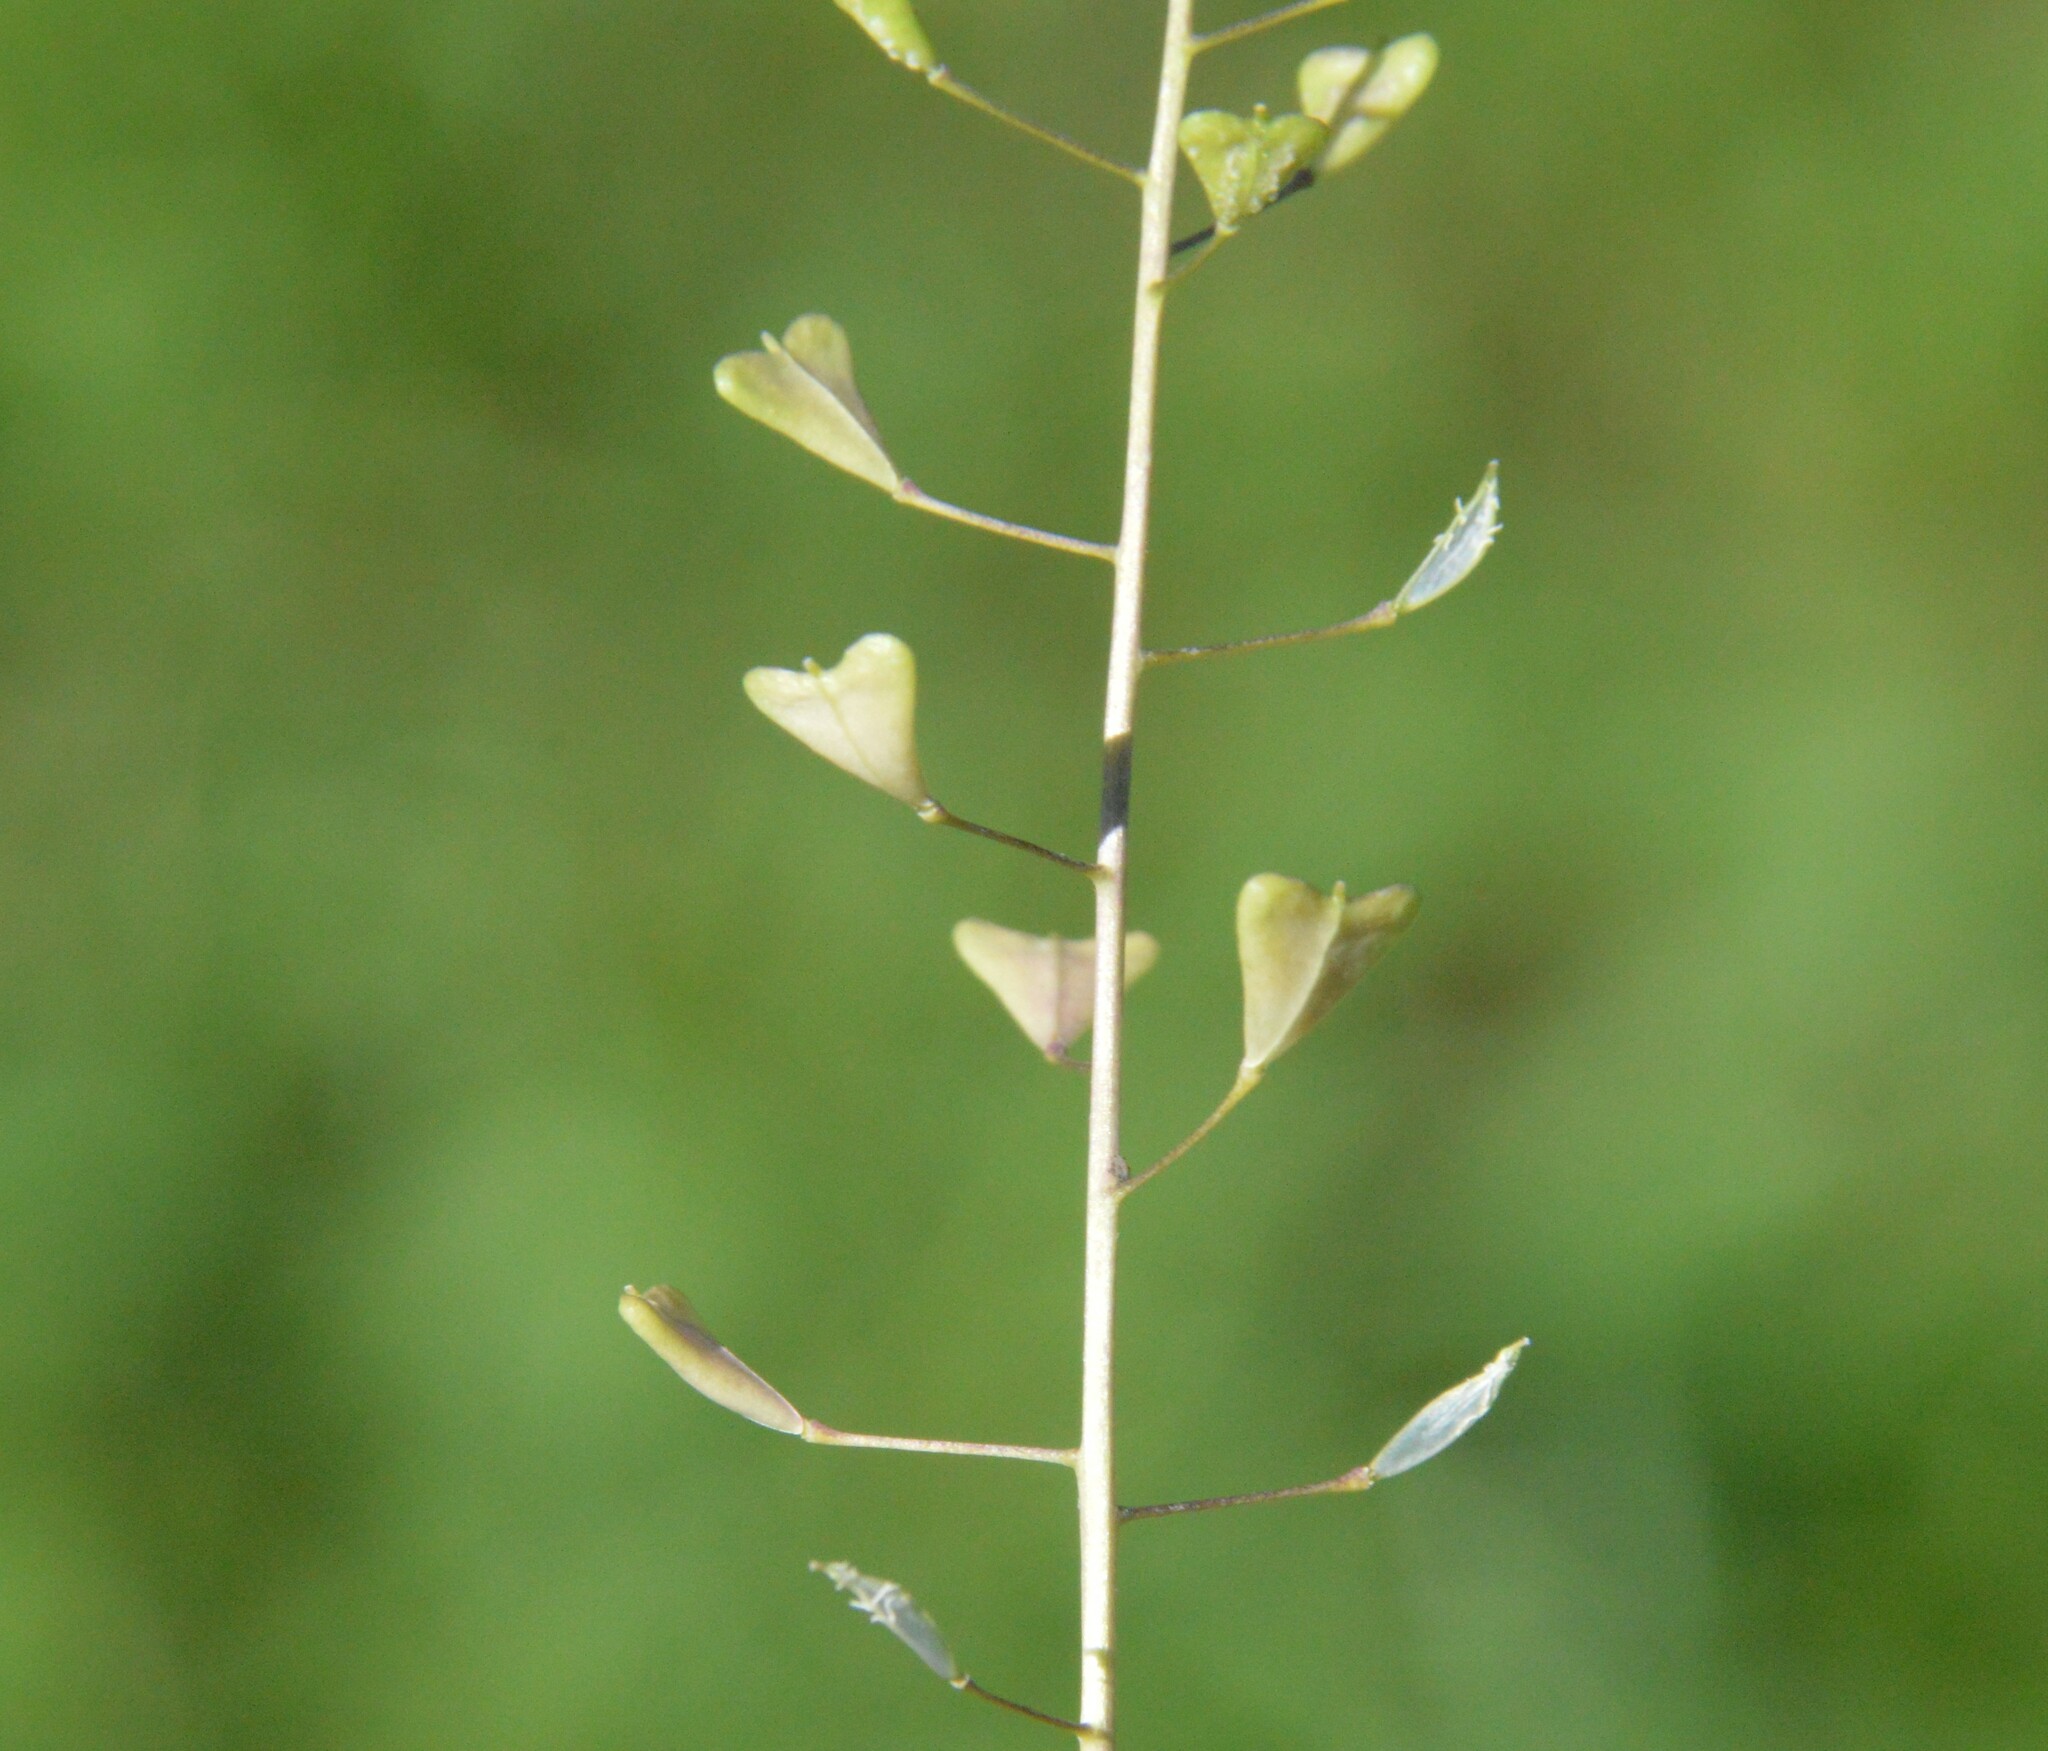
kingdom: Plantae
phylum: Tracheophyta
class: Magnoliopsida
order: Brassicales
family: Brassicaceae
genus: Capsella
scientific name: Capsella bursa-pastoris
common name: Shepherd's purse
